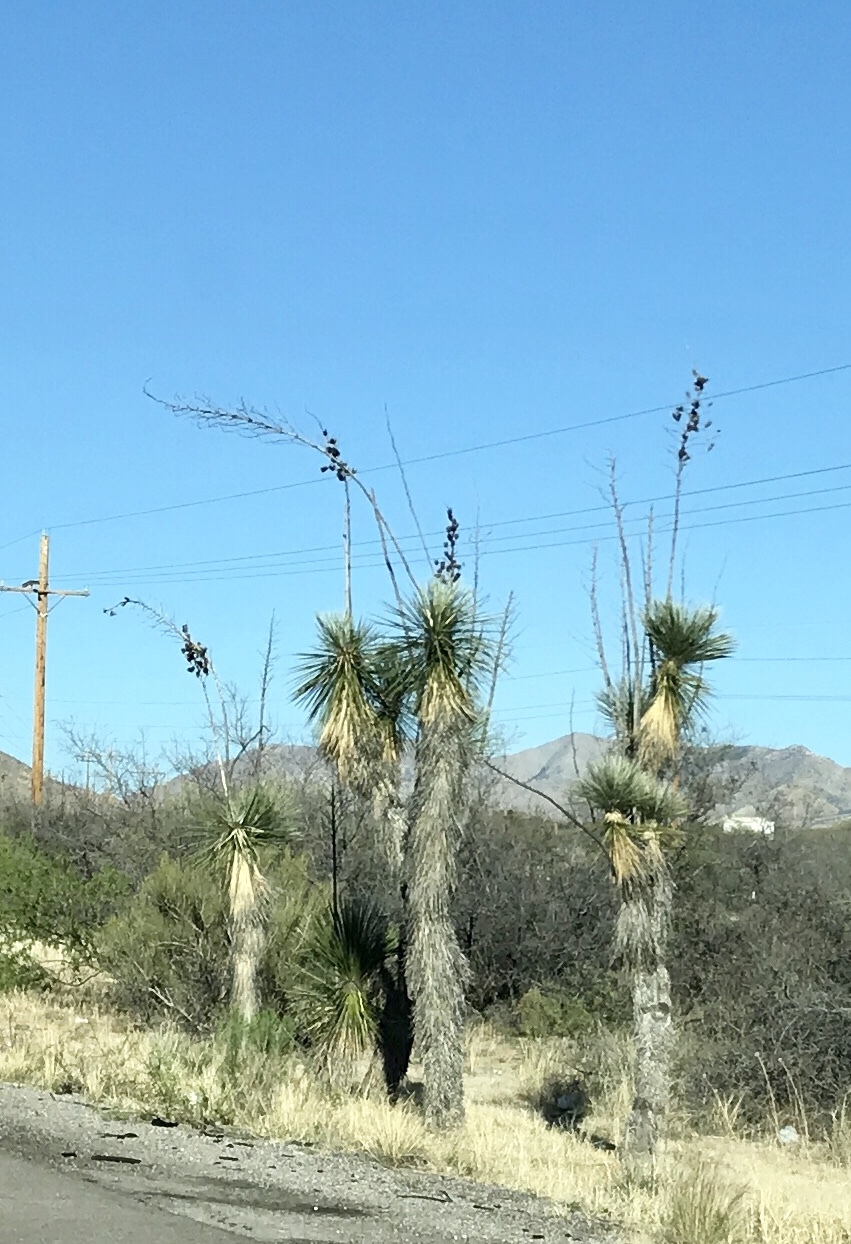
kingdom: Plantae
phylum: Tracheophyta
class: Liliopsida
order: Asparagales
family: Asparagaceae
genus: Yucca
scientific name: Yucca elata
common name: Palmella
